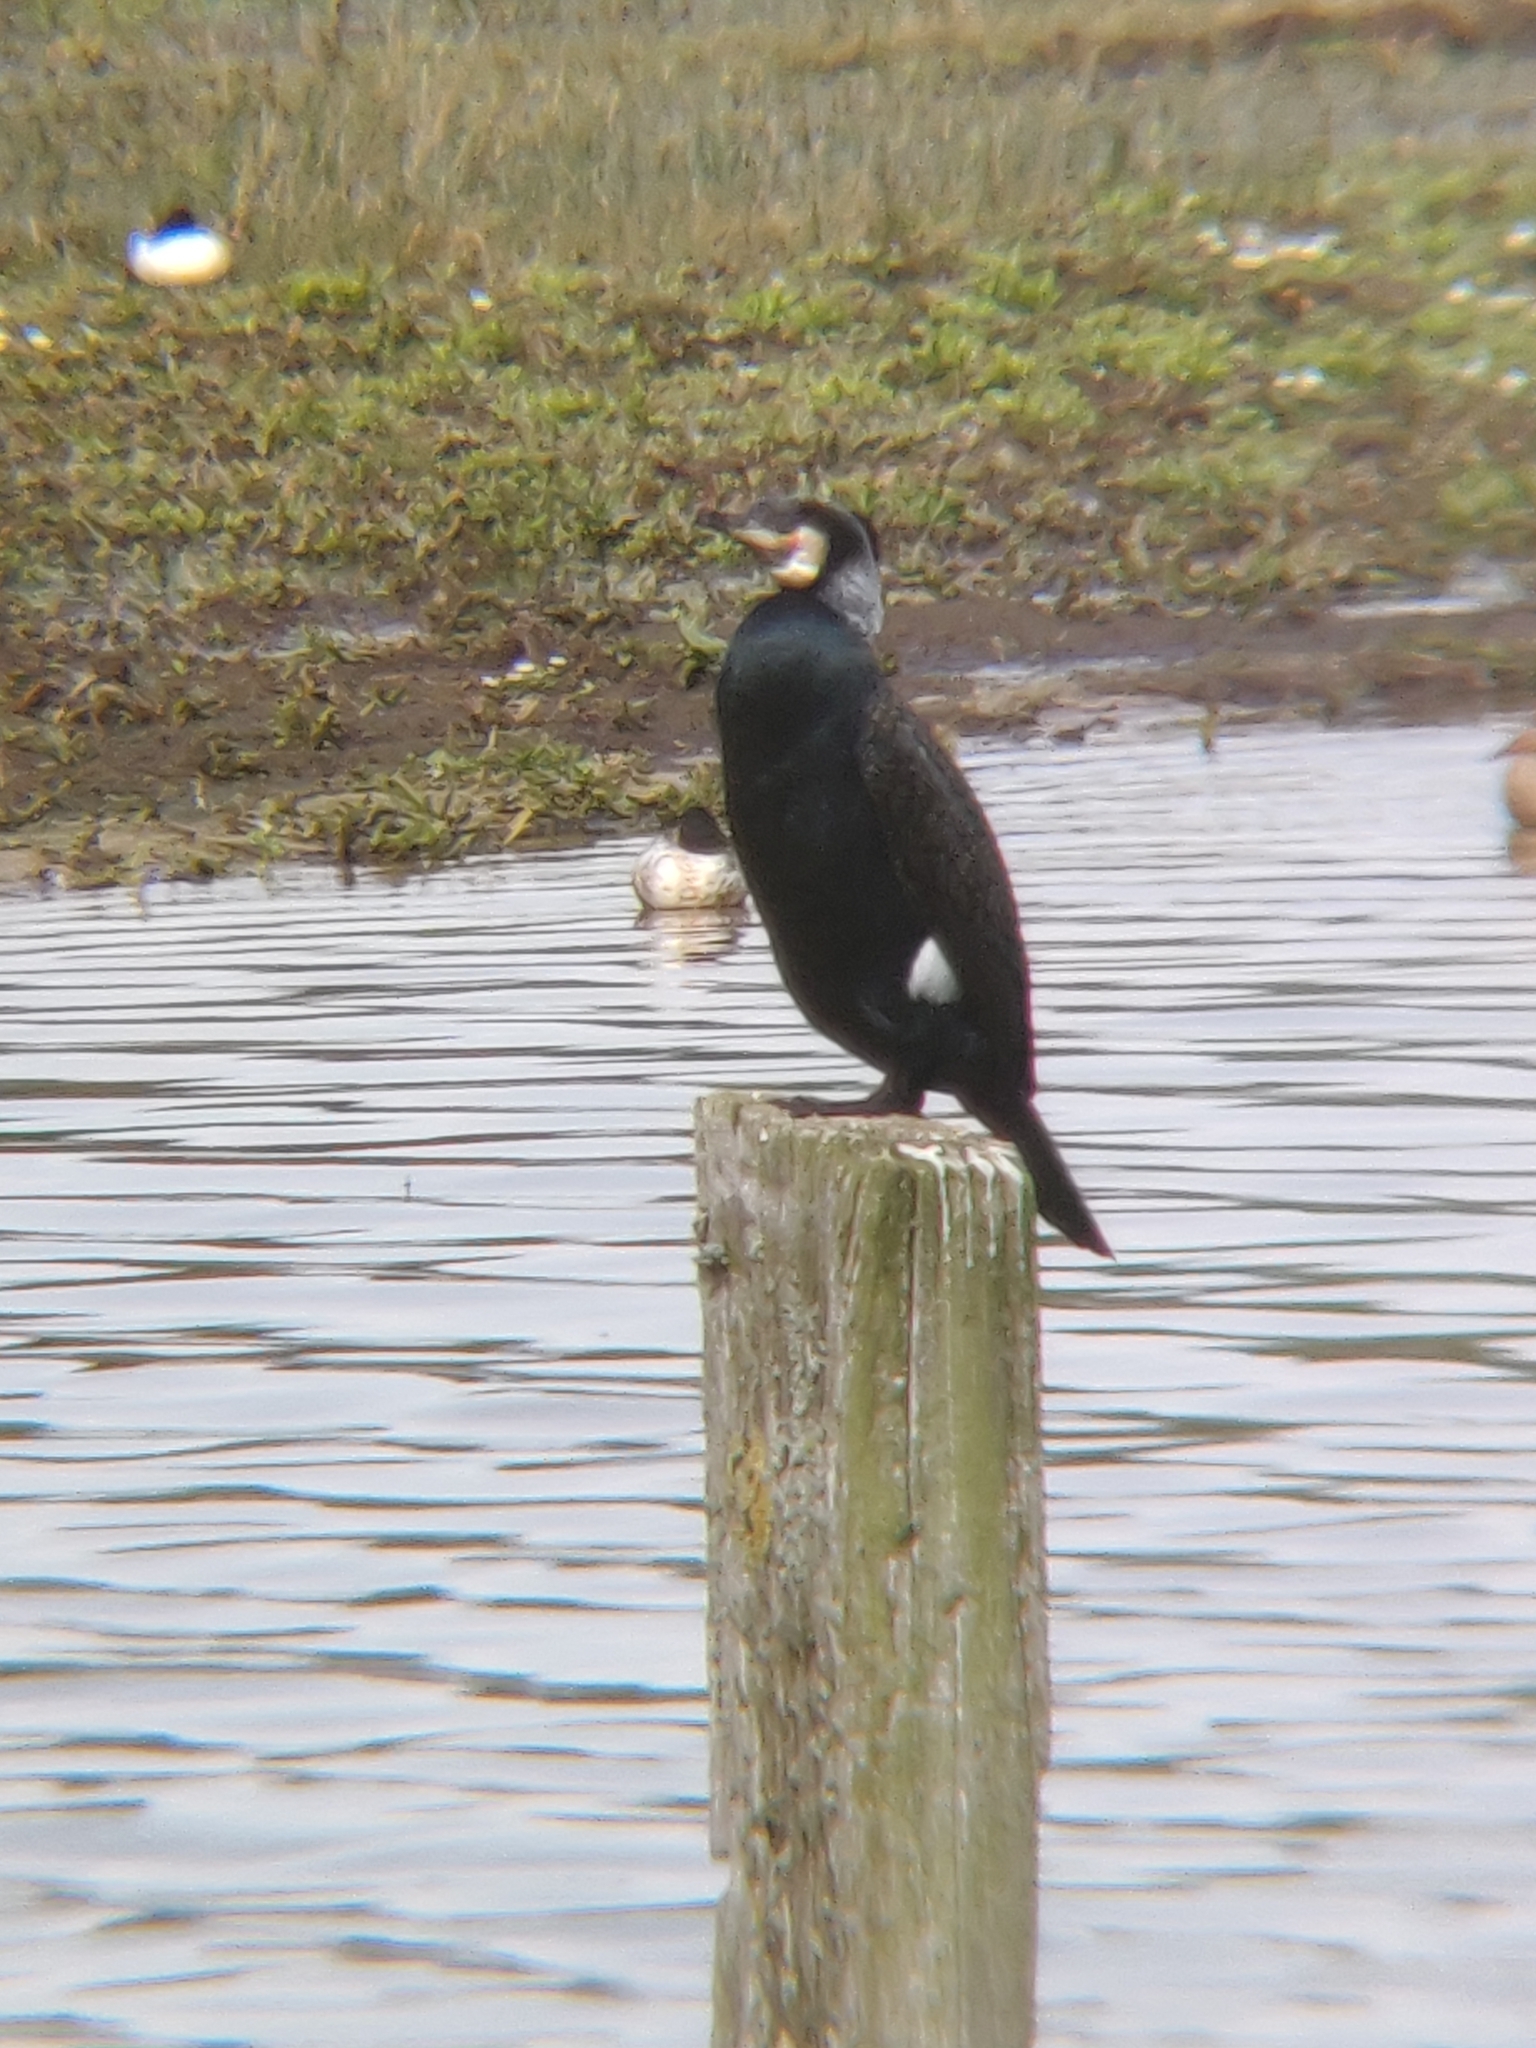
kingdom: Animalia
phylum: Chordata
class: Aves
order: Suliformes
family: Phalacrocoracidae
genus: Phalacrocorax
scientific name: Phalacrocorax carbo
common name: Great cormorant
